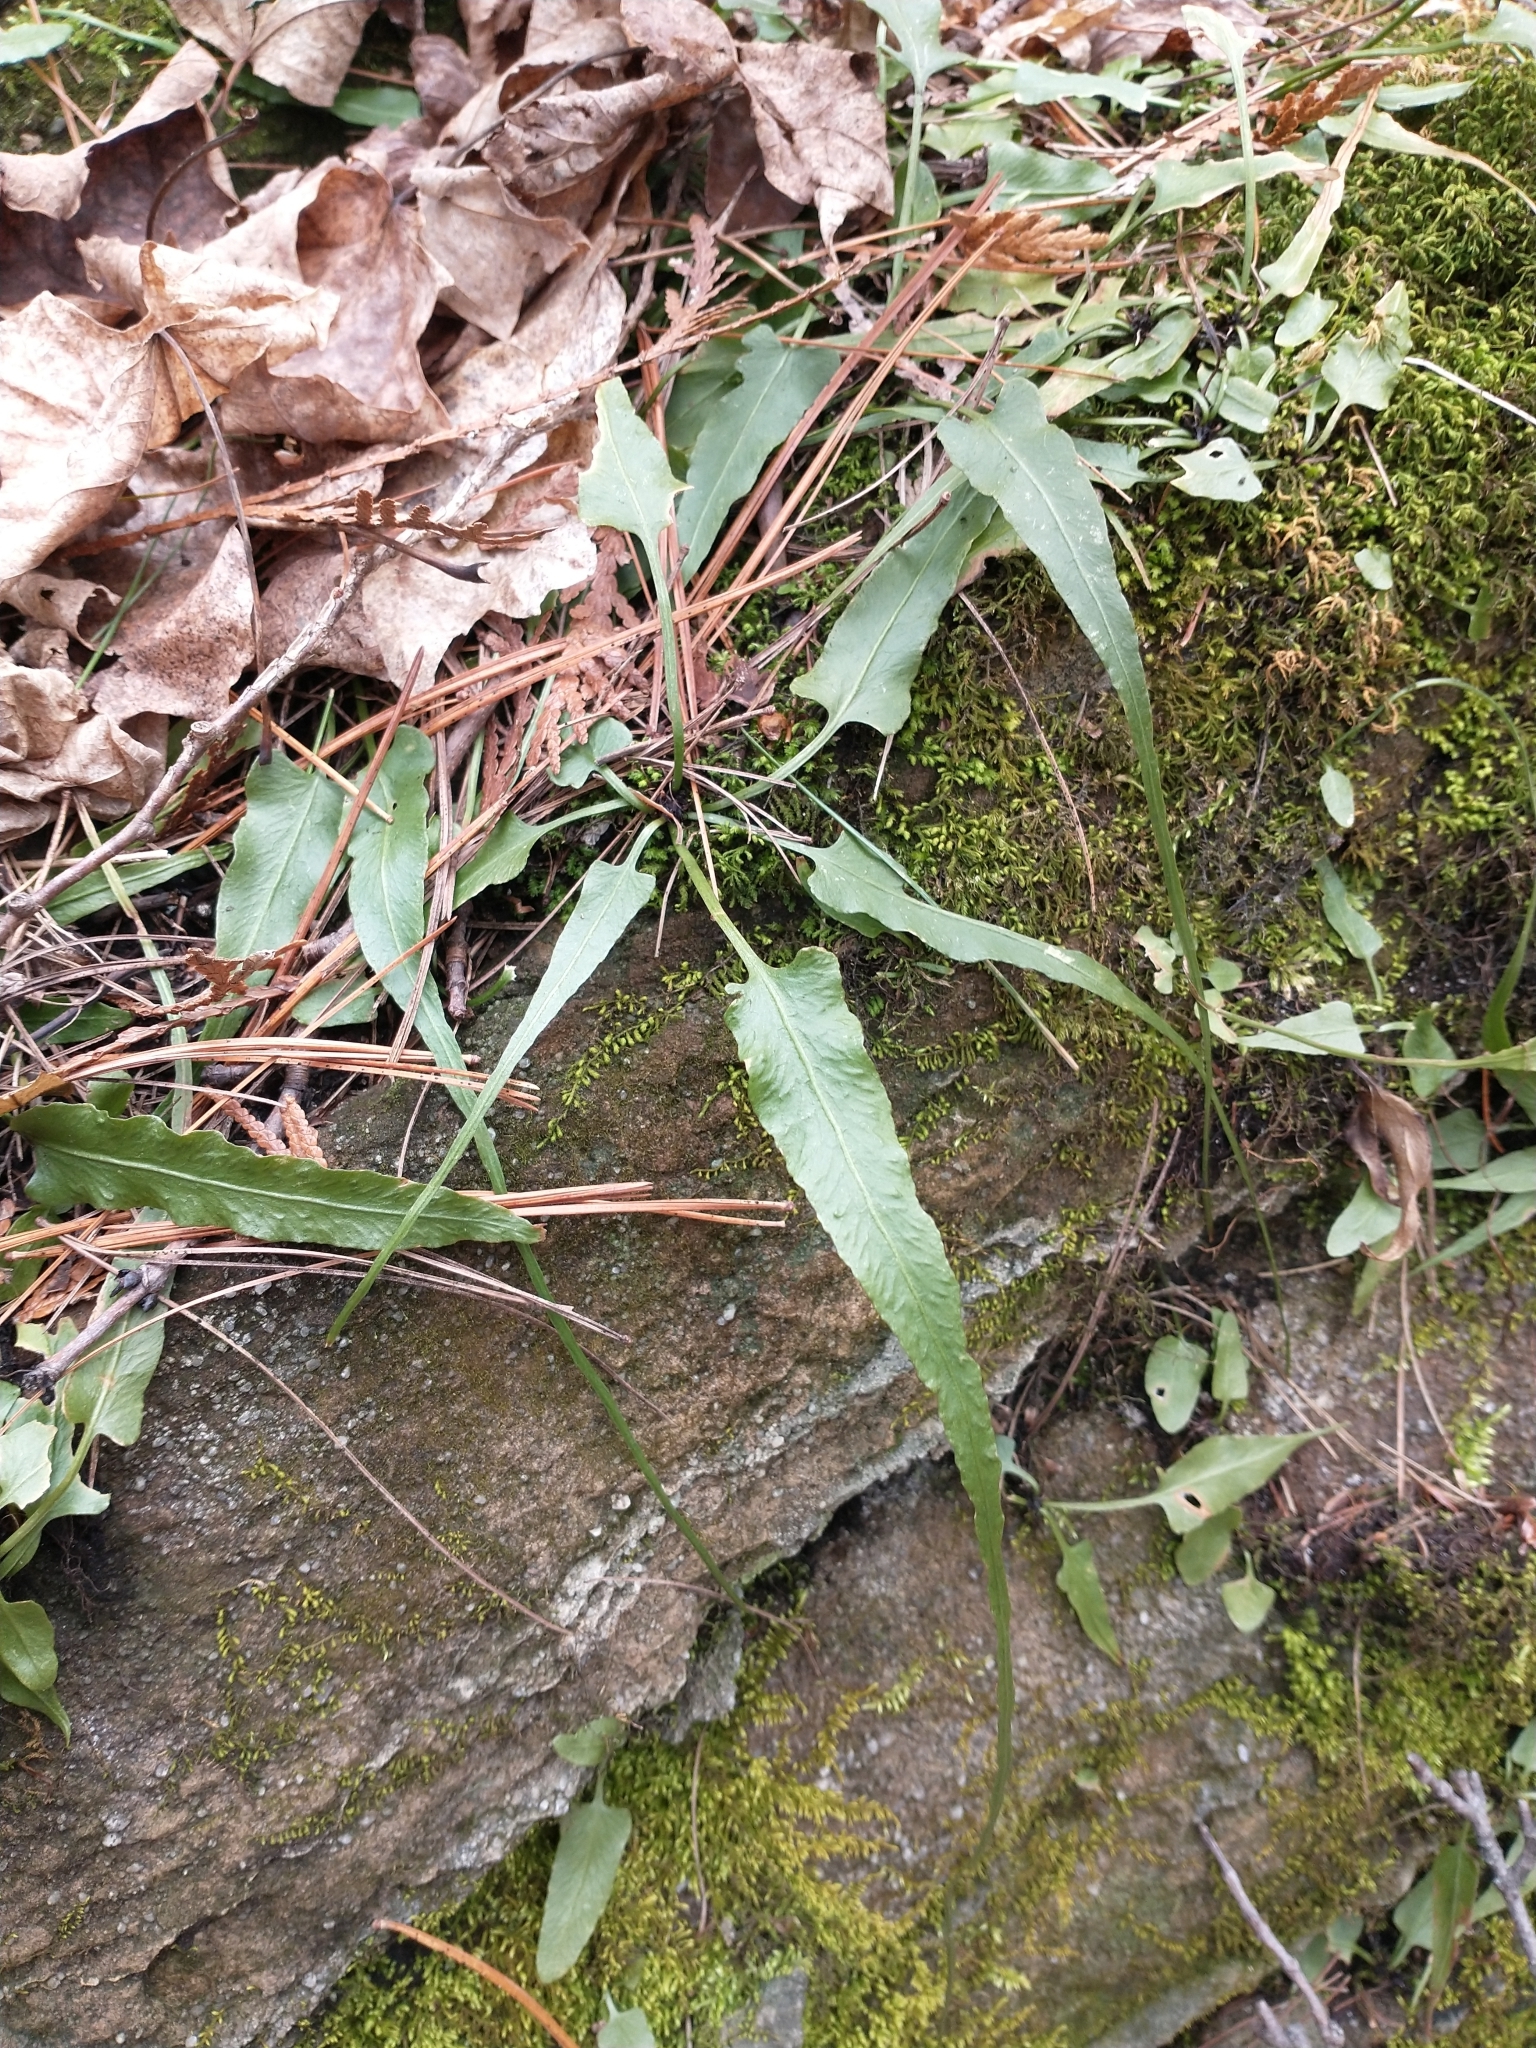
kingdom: Plantae
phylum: Tracheophyta
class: Polypodiopsida
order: Polypodiales
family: Aspleniaceae
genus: Asplenium
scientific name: Asplenium rhizophyllum
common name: Walking fern
